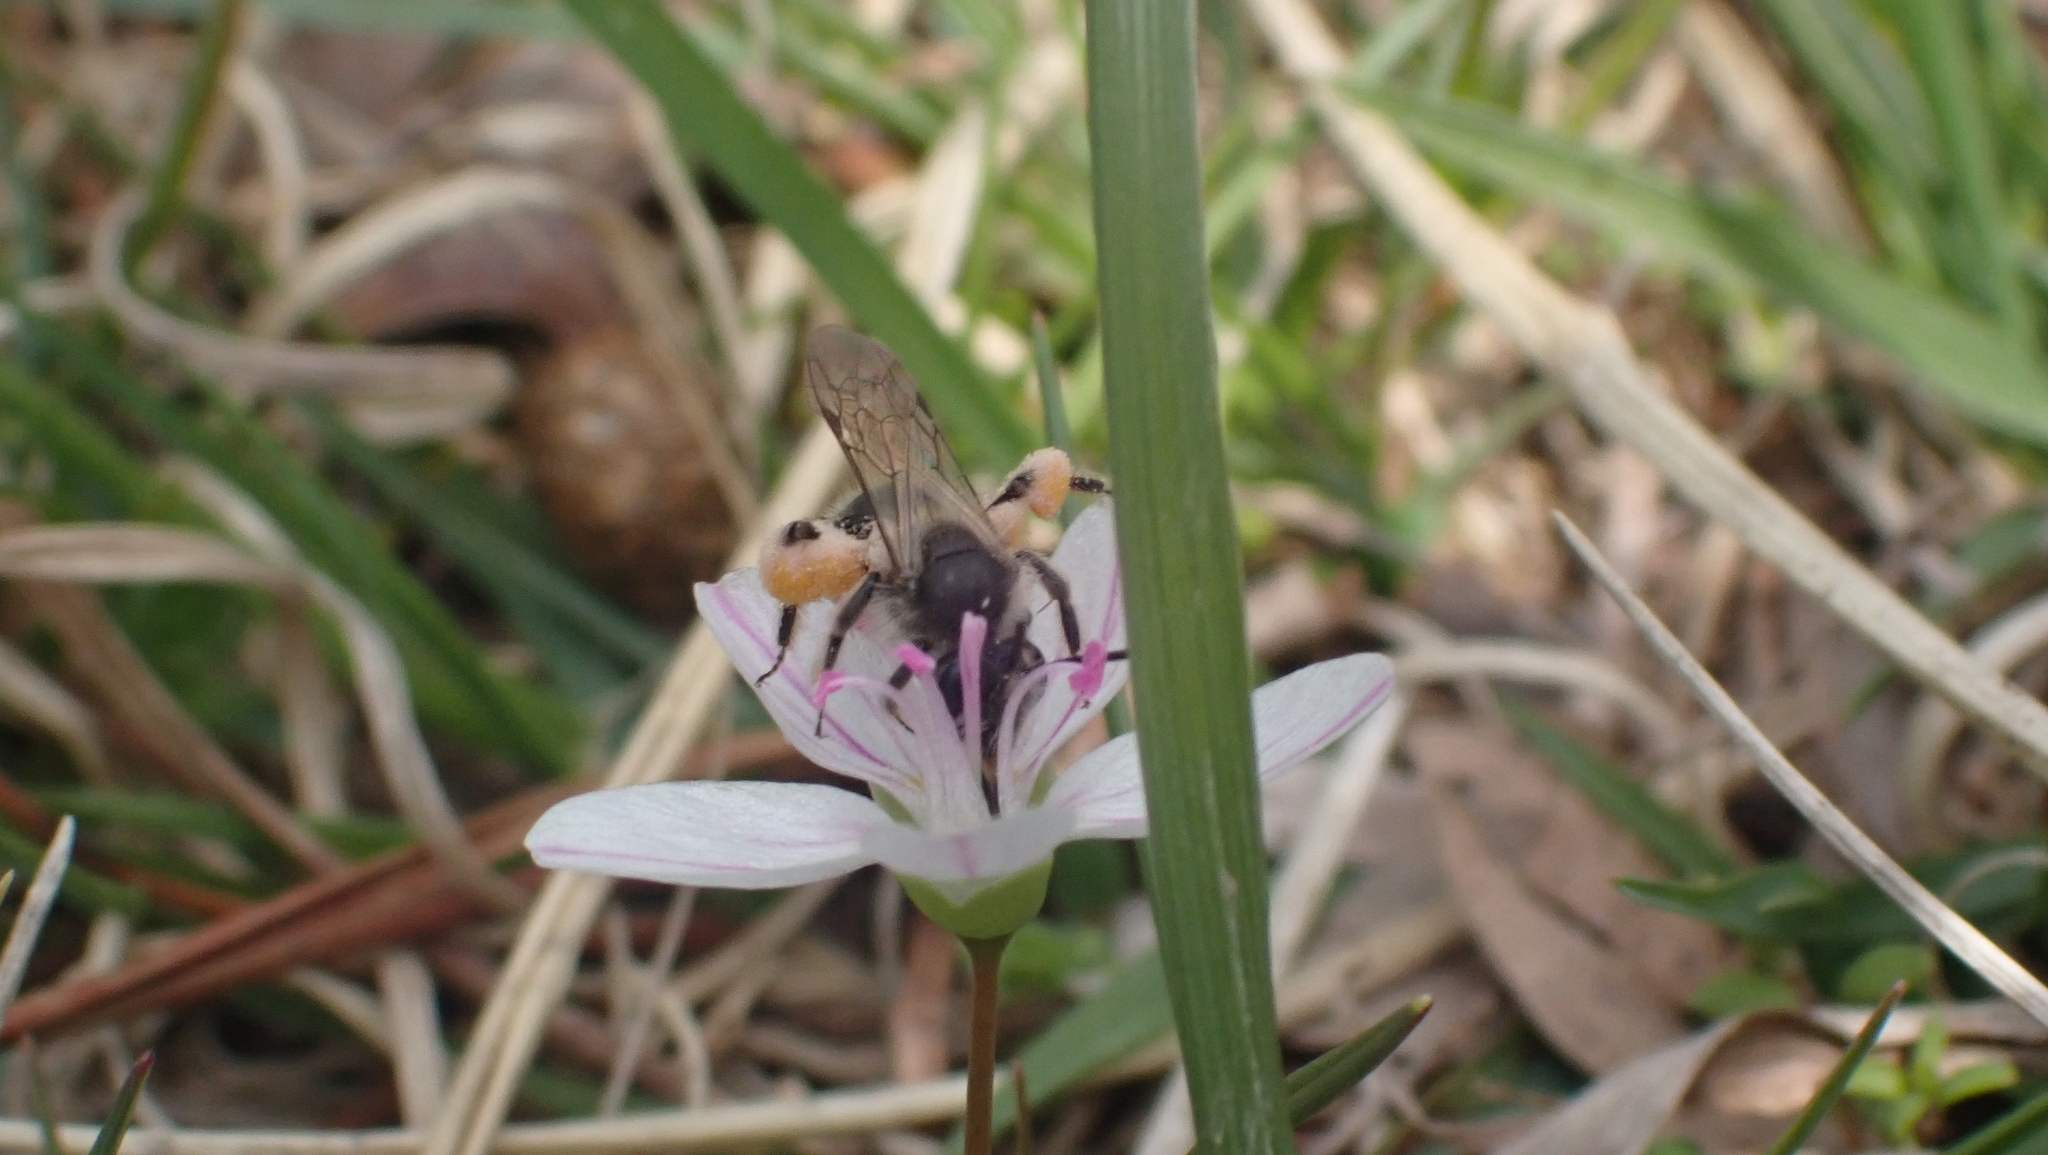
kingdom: Animalia
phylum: Arthropoda
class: Insecta
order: Hymenoptera
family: Andrenidae
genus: Andrena
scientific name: Andrena erigeniae
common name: Spring beauty miner
